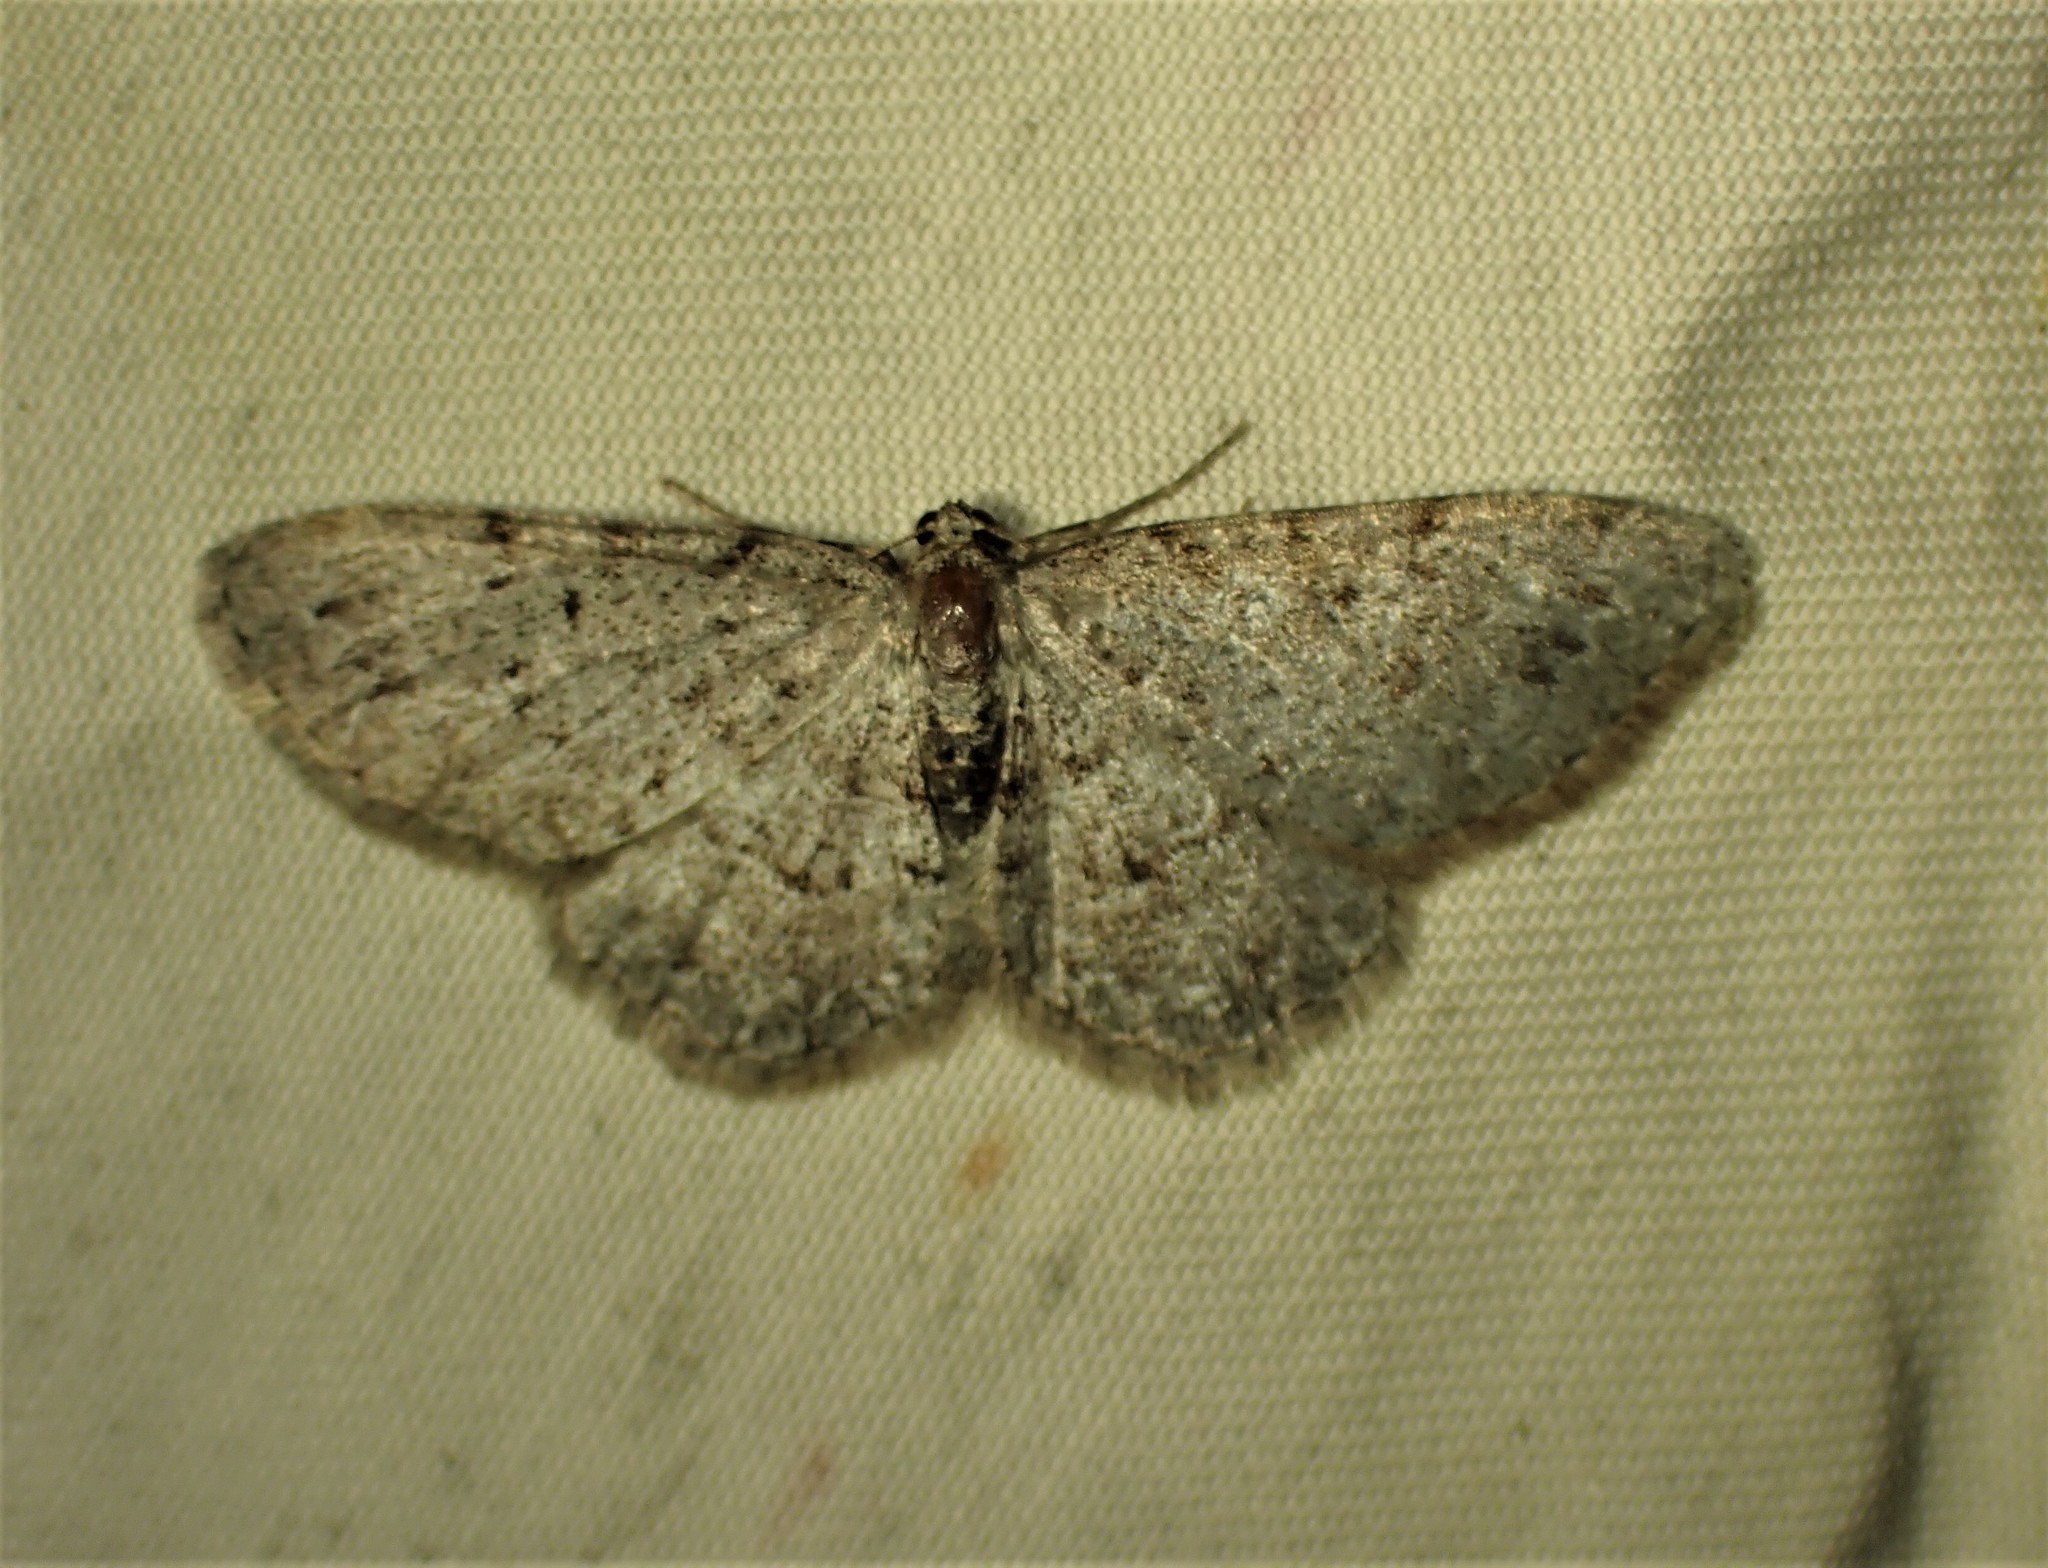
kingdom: Animalia
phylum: Arthropoda
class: Insecta
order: Lepidoptera
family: Geometridae
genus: Aethalura
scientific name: Aethalura intertexta
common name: Four-barred gray
